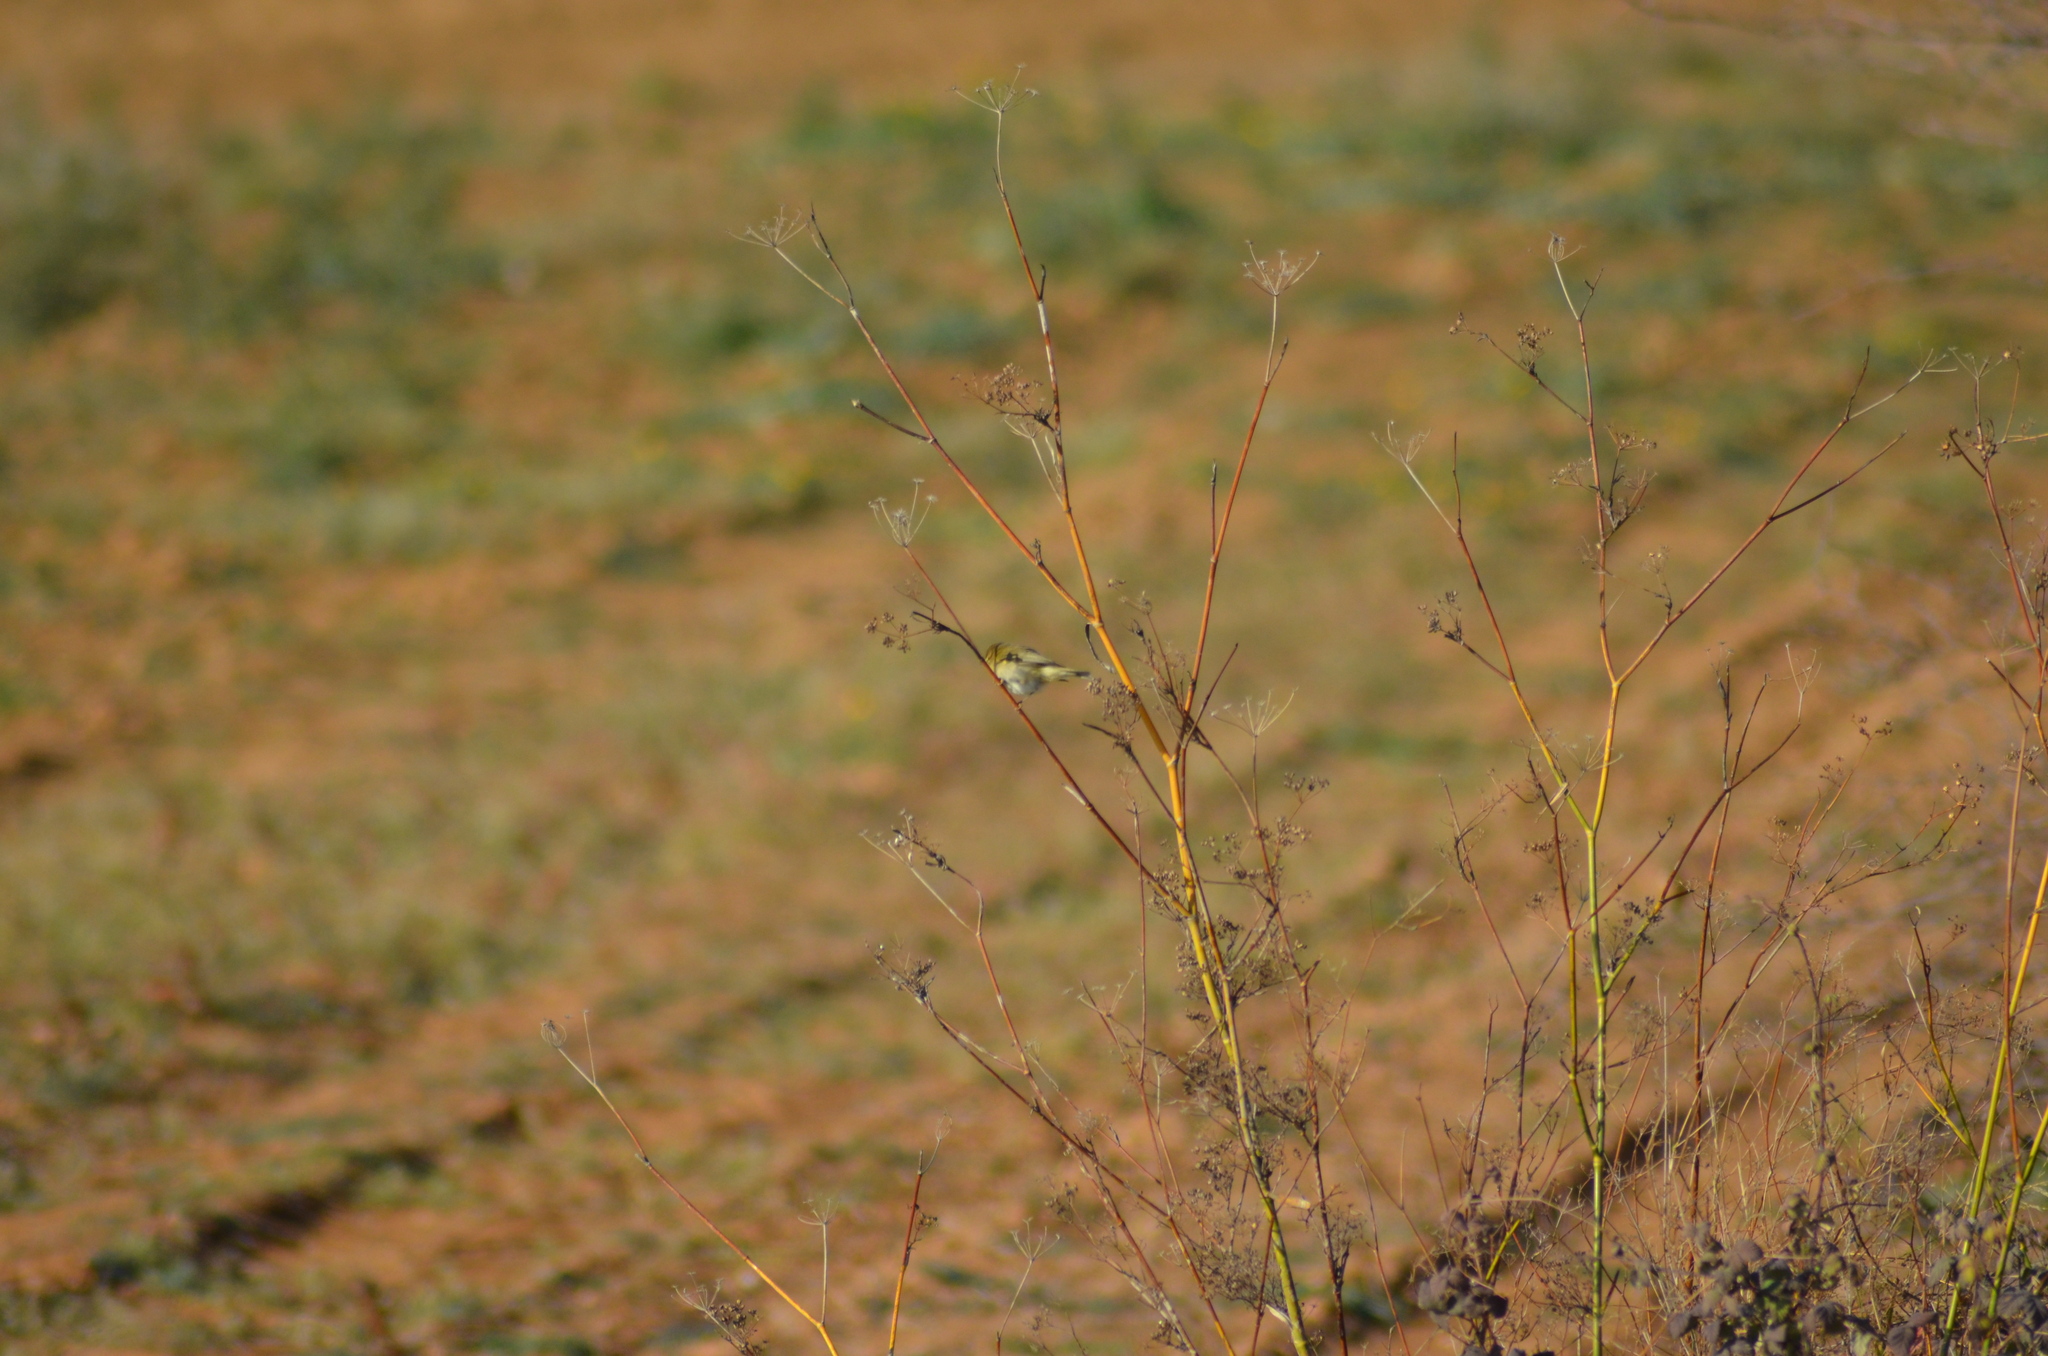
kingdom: Animalia
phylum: Chordata
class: Aves
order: Passeriformes
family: Phylloscopidae
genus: Phylloscopus
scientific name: Phylloscopus collybita
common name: Common chiffchaff
